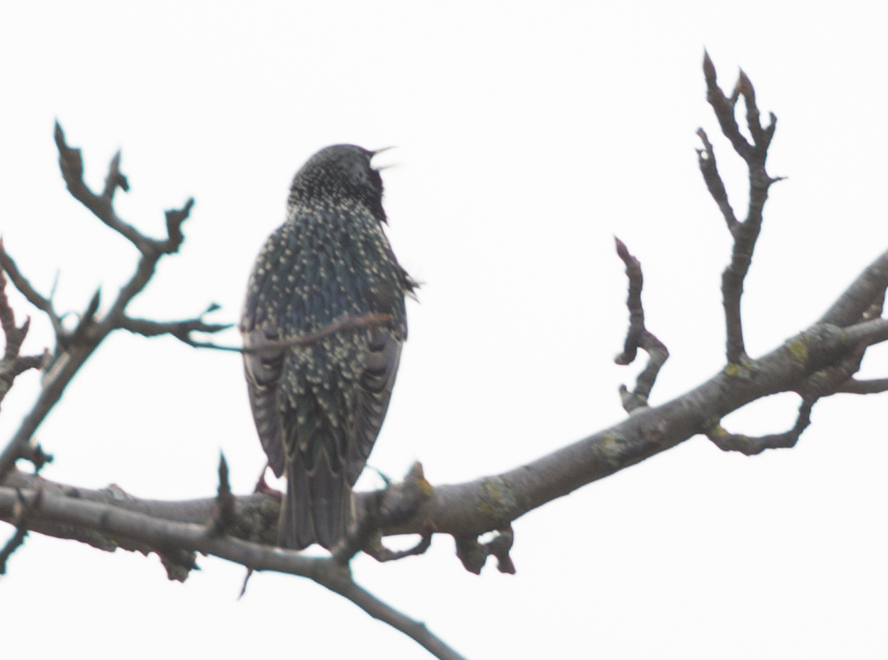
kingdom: Animalia
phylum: Chordata
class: Aves
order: Passeriformes
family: Sturnidae
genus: Sturnus
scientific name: Sturnus vulgaris
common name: Common starling
